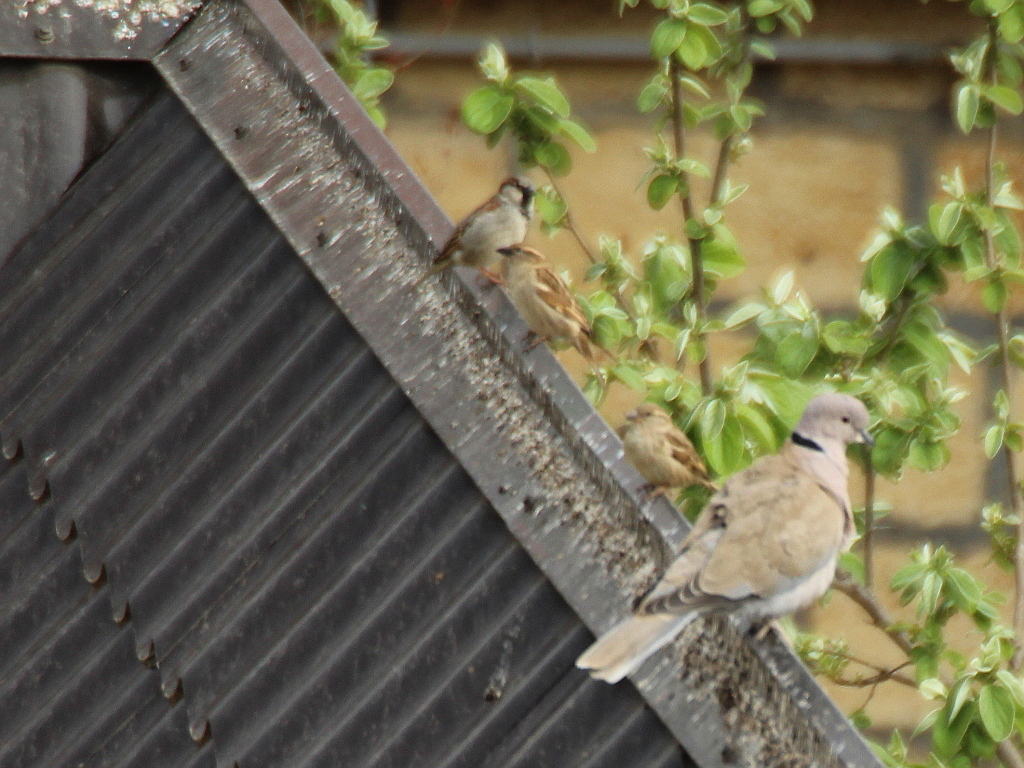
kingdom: Animalia
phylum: Chordata
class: Aves
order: Passeriformes
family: Passeridae
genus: Passer
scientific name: Passer domesticus
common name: House sparrow
